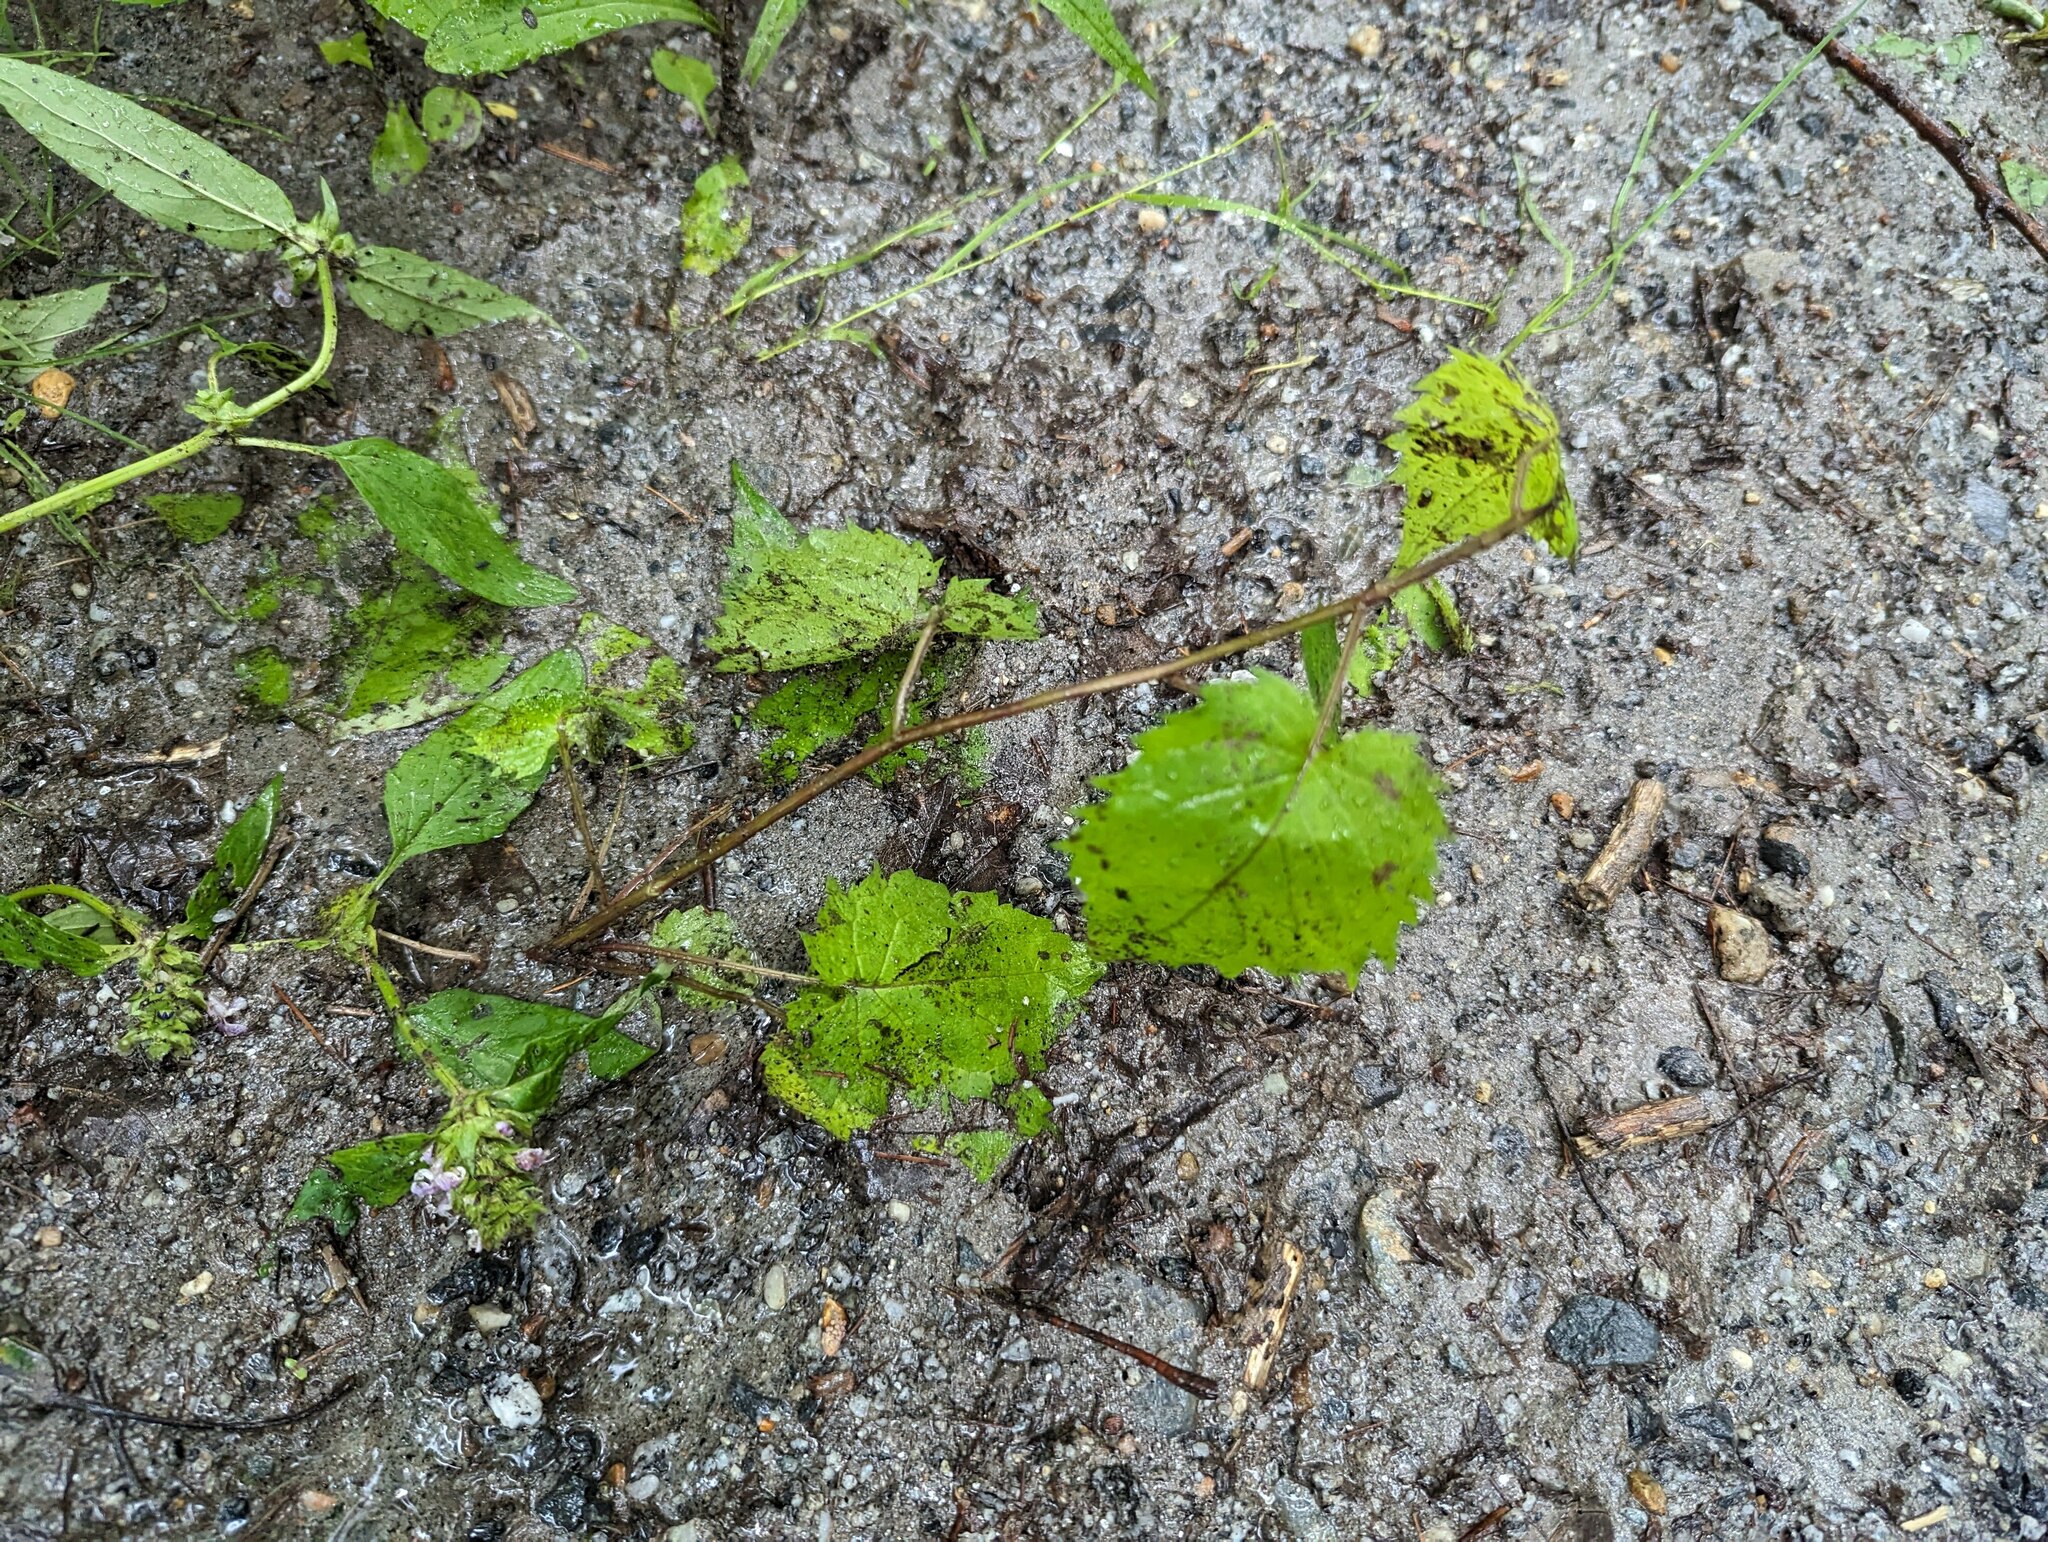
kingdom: Plantae
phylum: Tracheophyta
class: Magnoliopsida
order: Brassicales
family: Brassicaceae
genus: Alliaria
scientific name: Alliaria petiolata
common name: Garlic mustard
